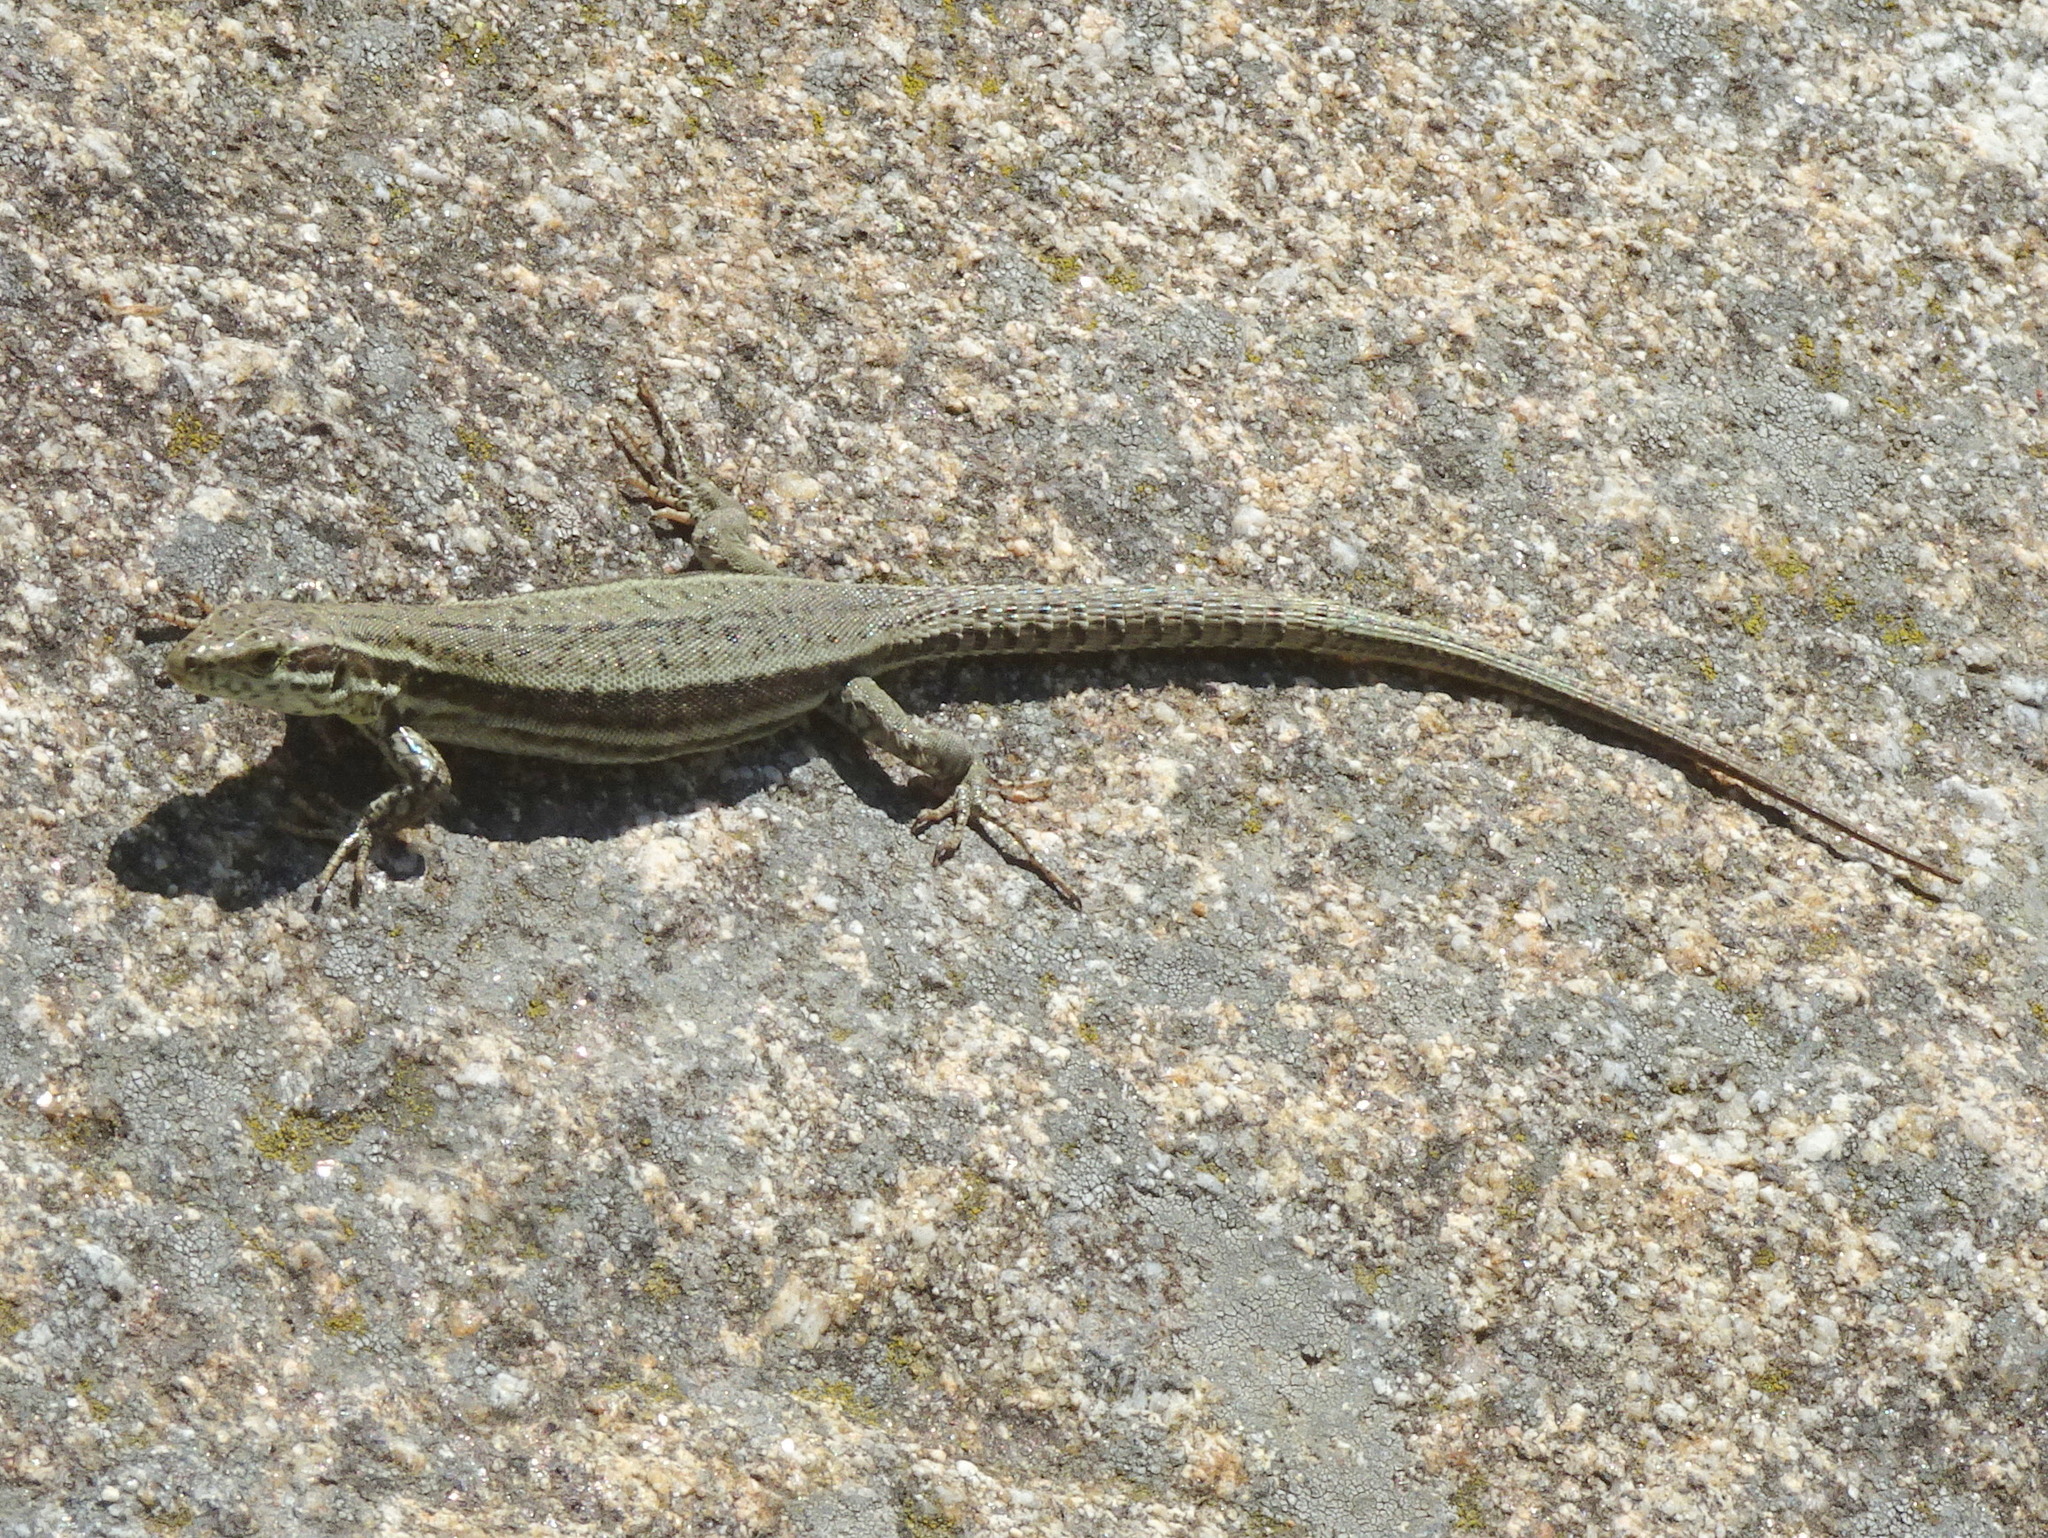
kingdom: Animalia
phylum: Chordata
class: Squamata
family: Lacertidae
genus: Podarcis
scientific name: Podarcis muralis
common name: Common wall lizard
